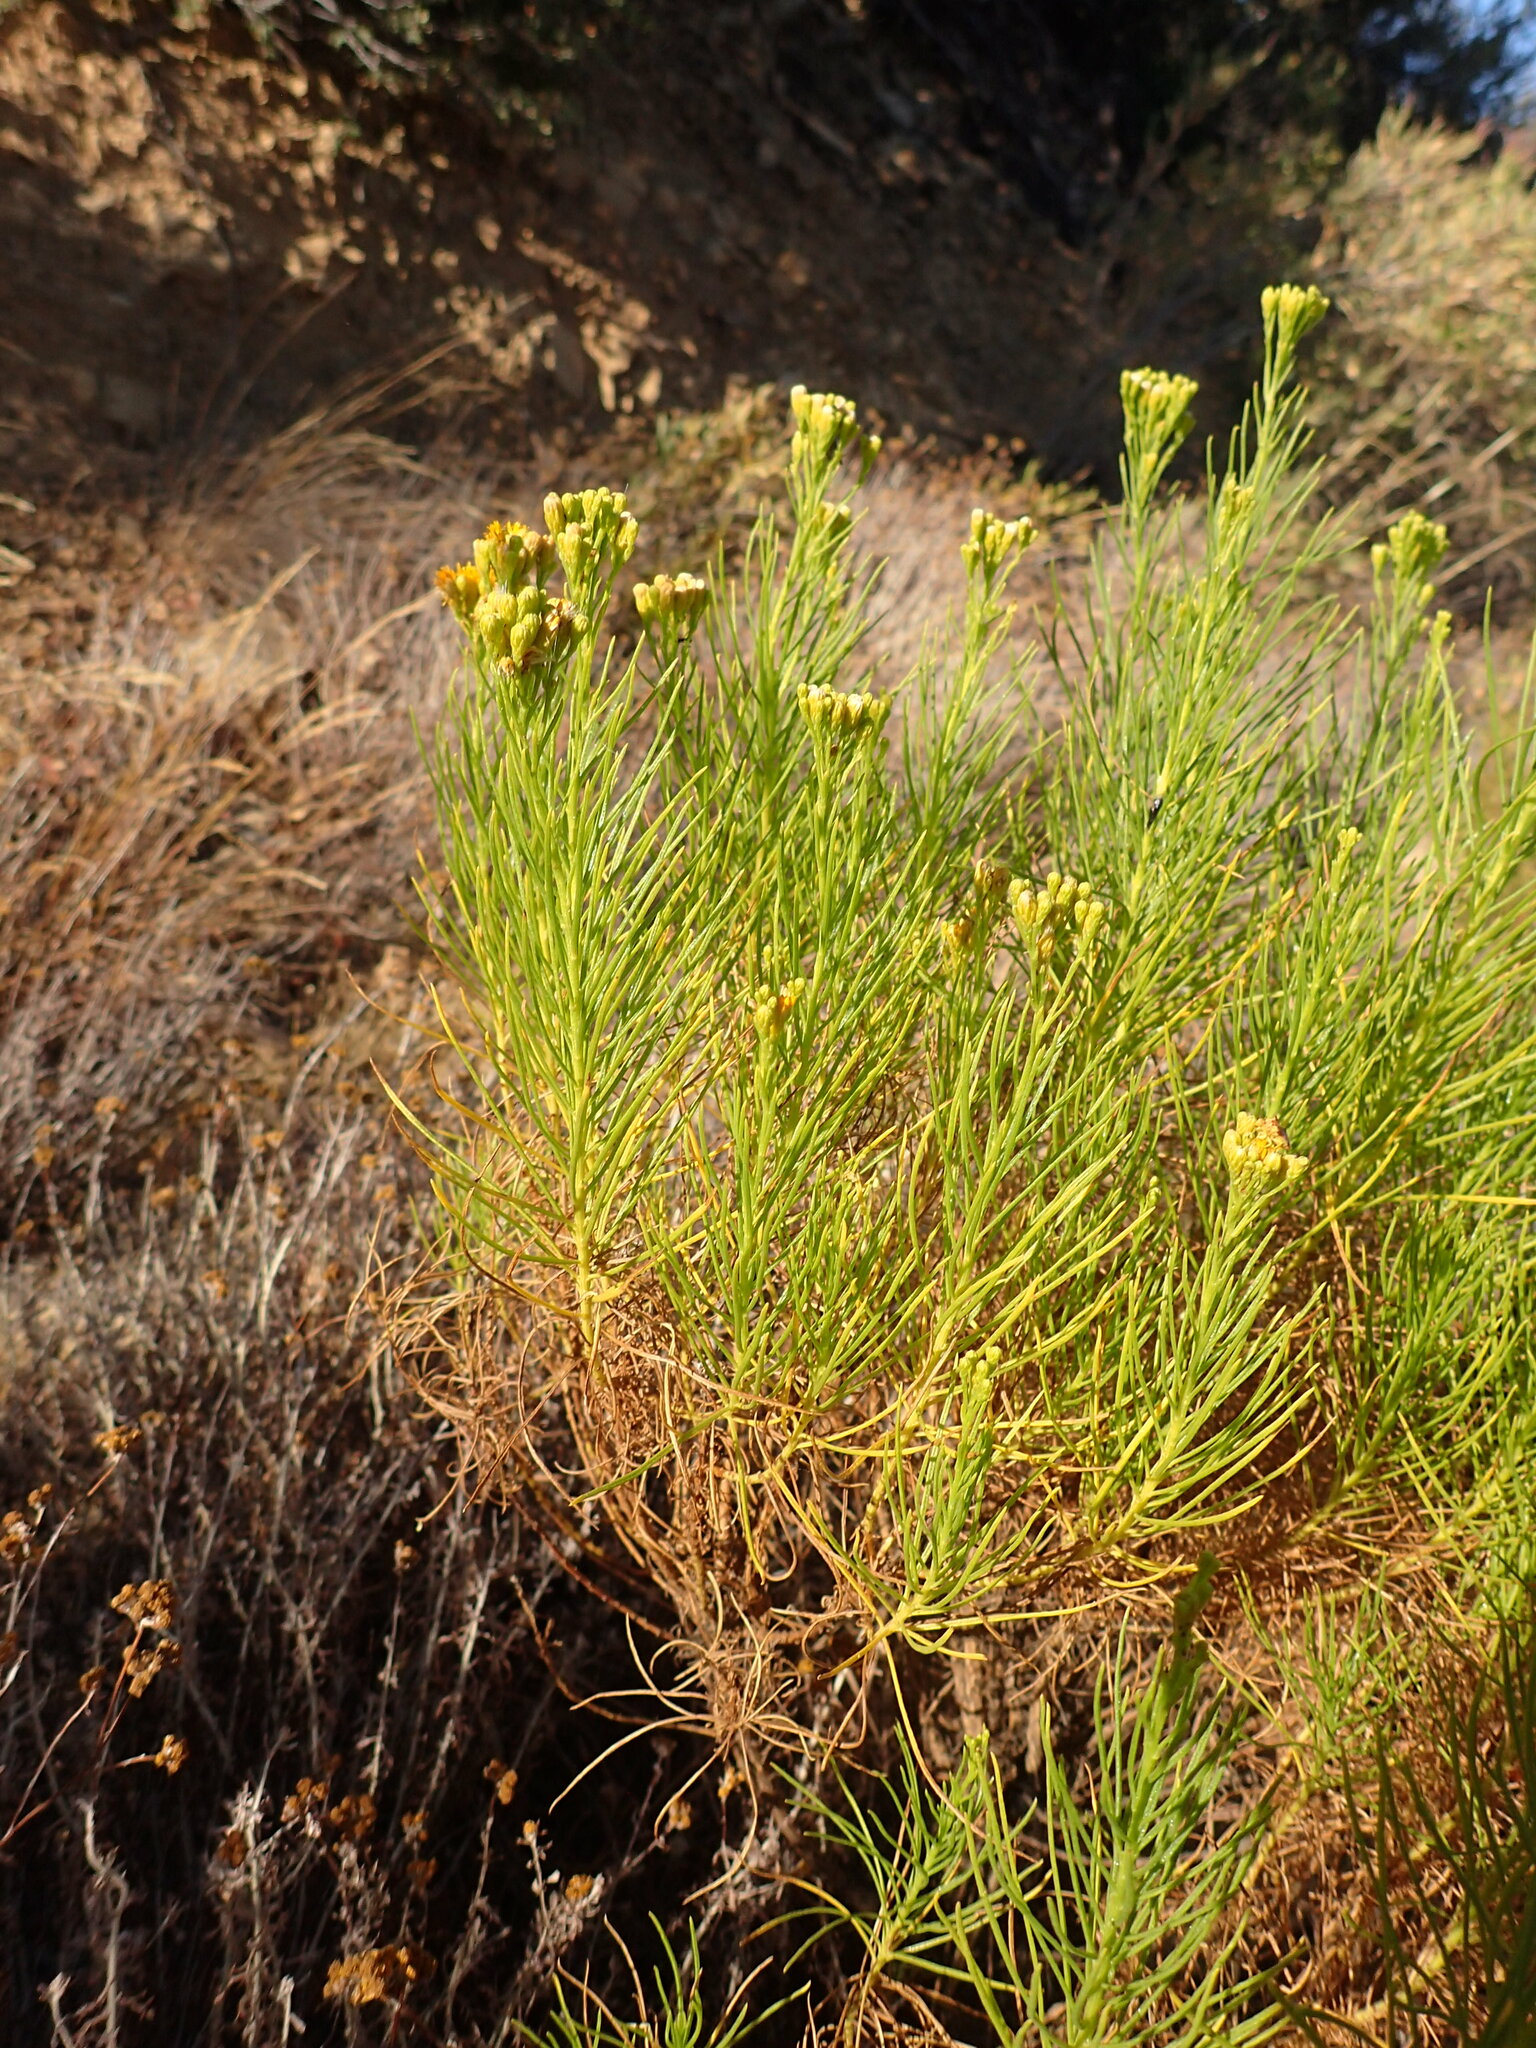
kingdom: Plantae
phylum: Tracheophyta
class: Magnoliopsida
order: Asterales
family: Asteraceae
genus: Ericameria
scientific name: Ericameria arborescens
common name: Goldenfleece
